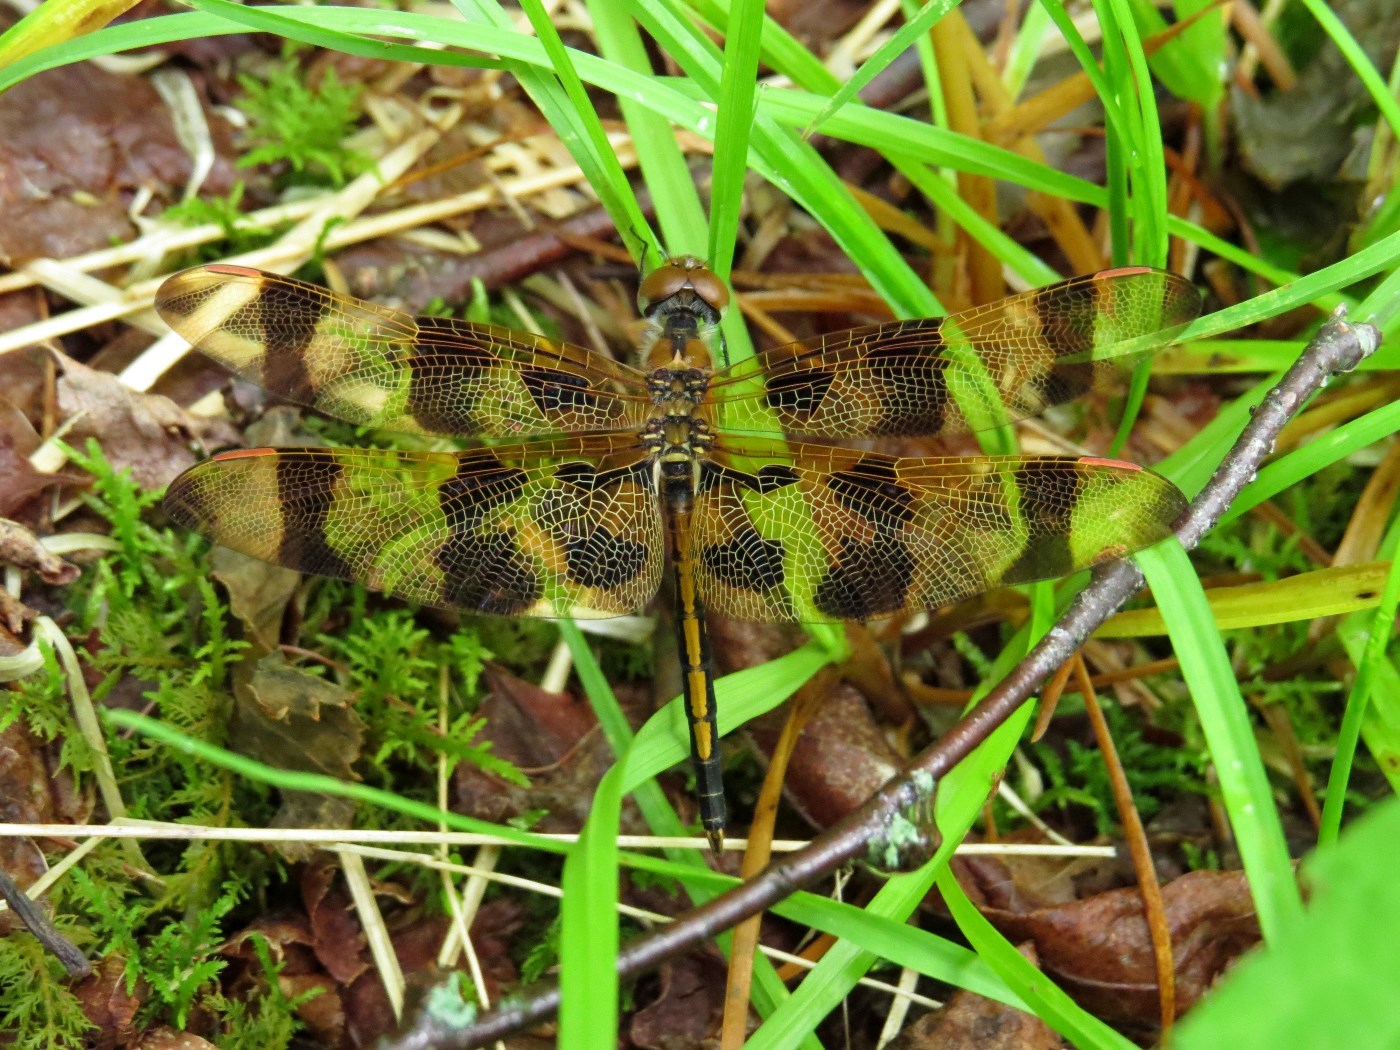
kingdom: Animalia
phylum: Arthropoda
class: Insecta
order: Odonata
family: Libellulidae
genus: Celithemis
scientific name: Celithemis eponina
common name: Halloween pennant
